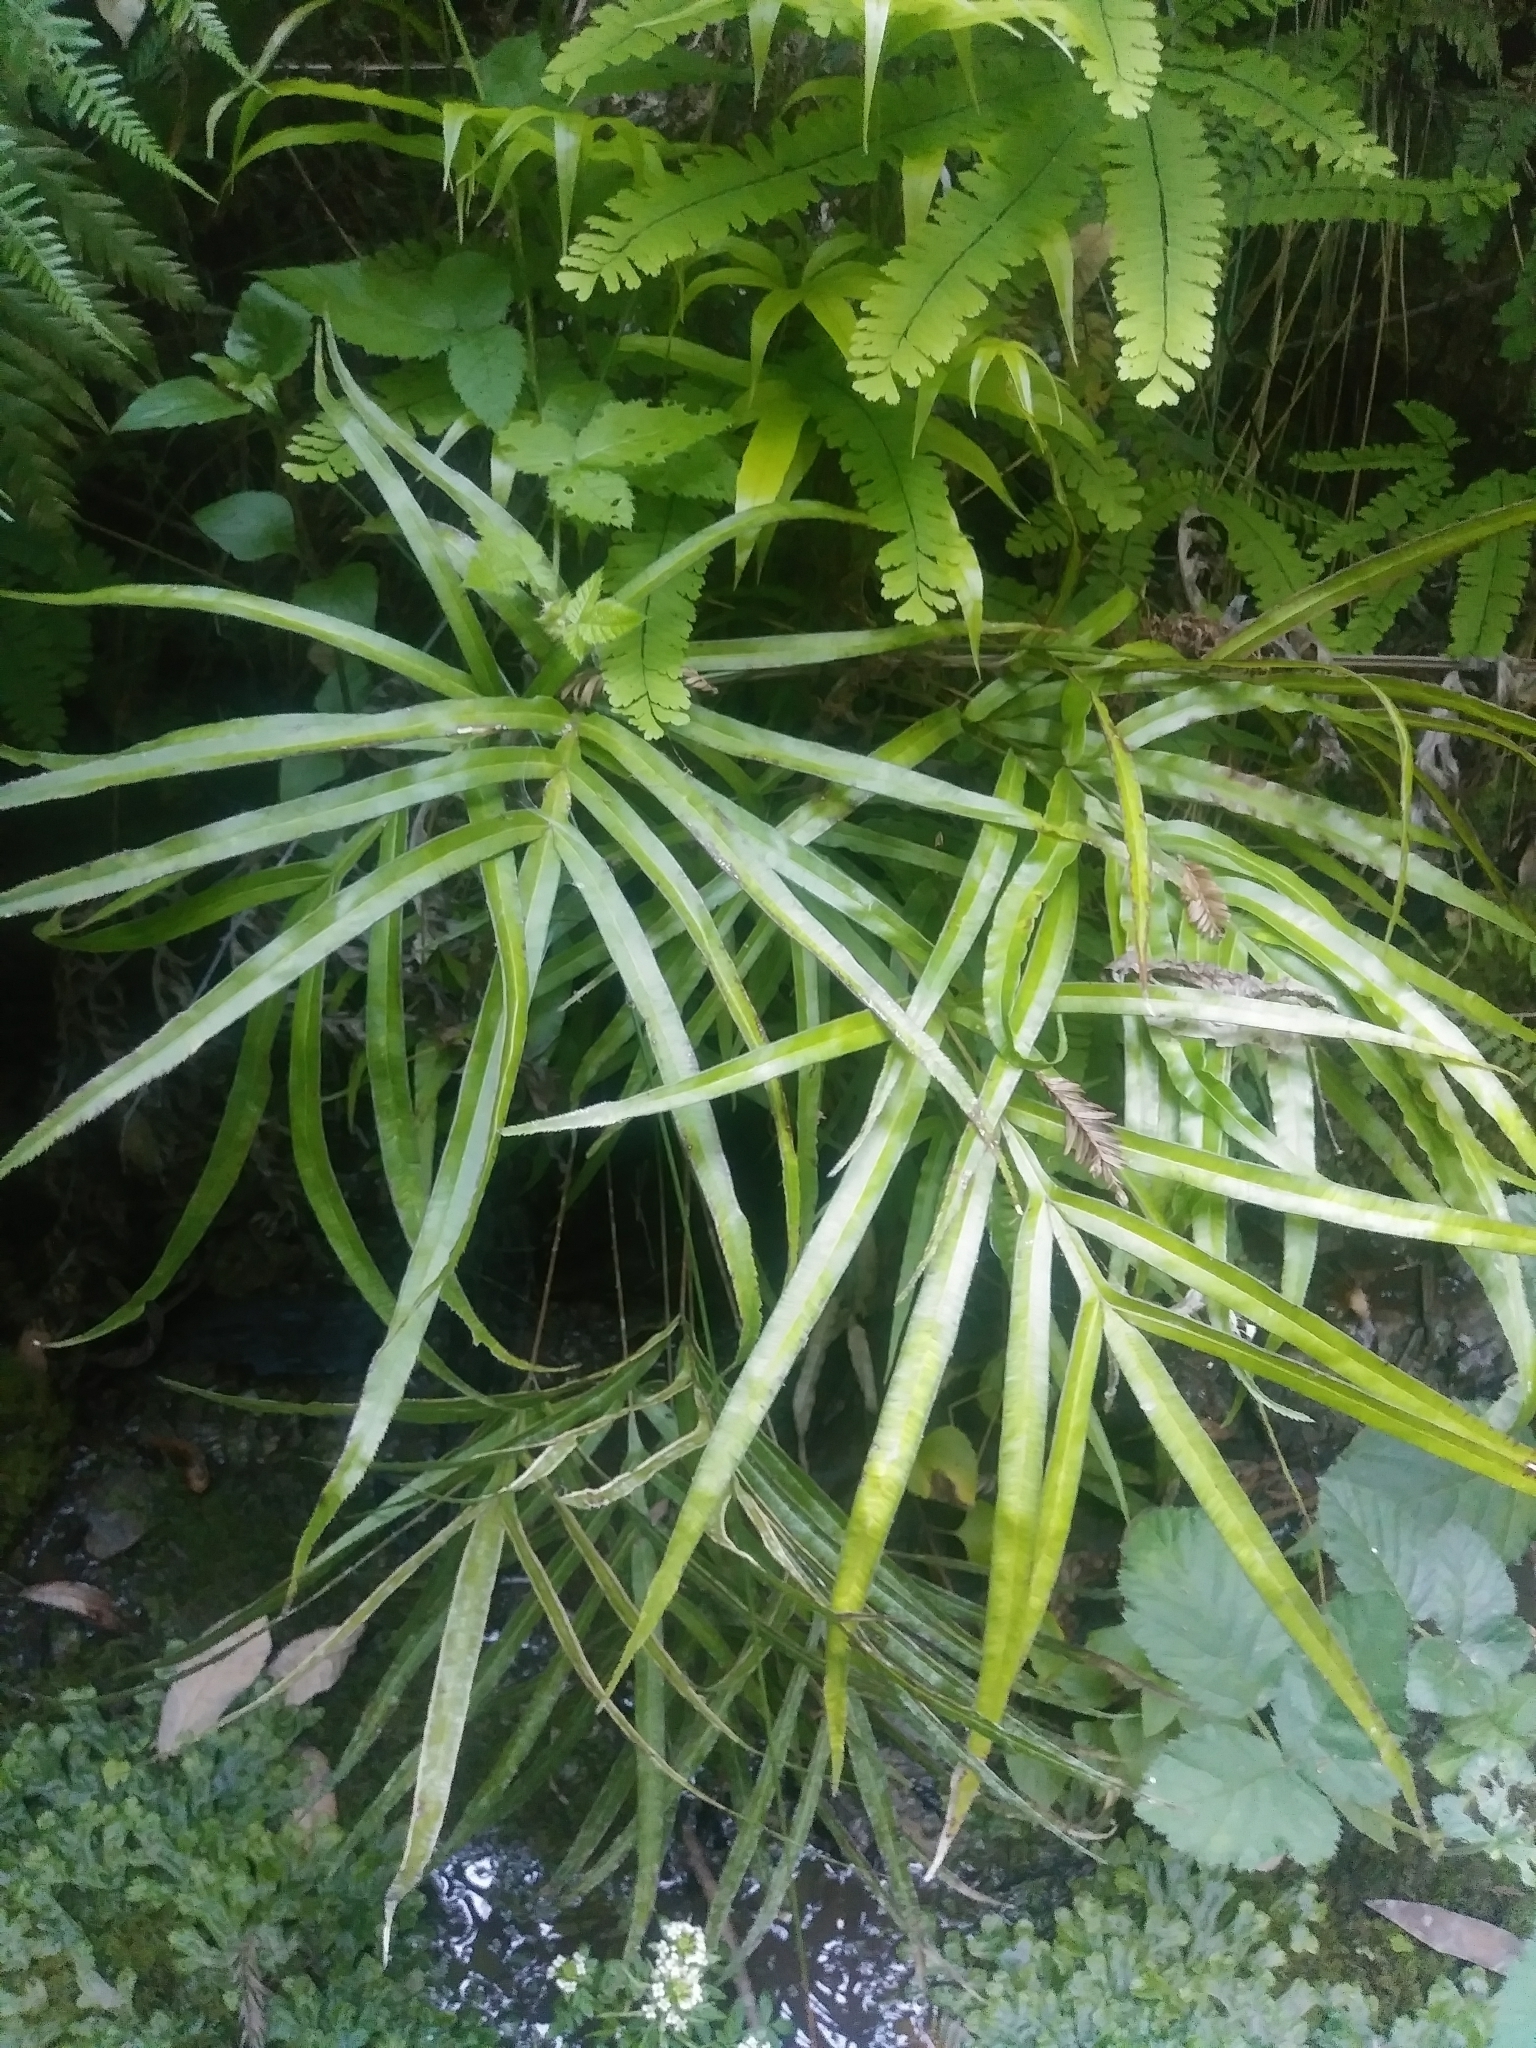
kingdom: Plantae
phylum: Tracheophyta
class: Polypodiopsida
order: Polypodiales
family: Pteridaceae
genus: Pteris
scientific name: Pteris multifida
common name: Spider brake
